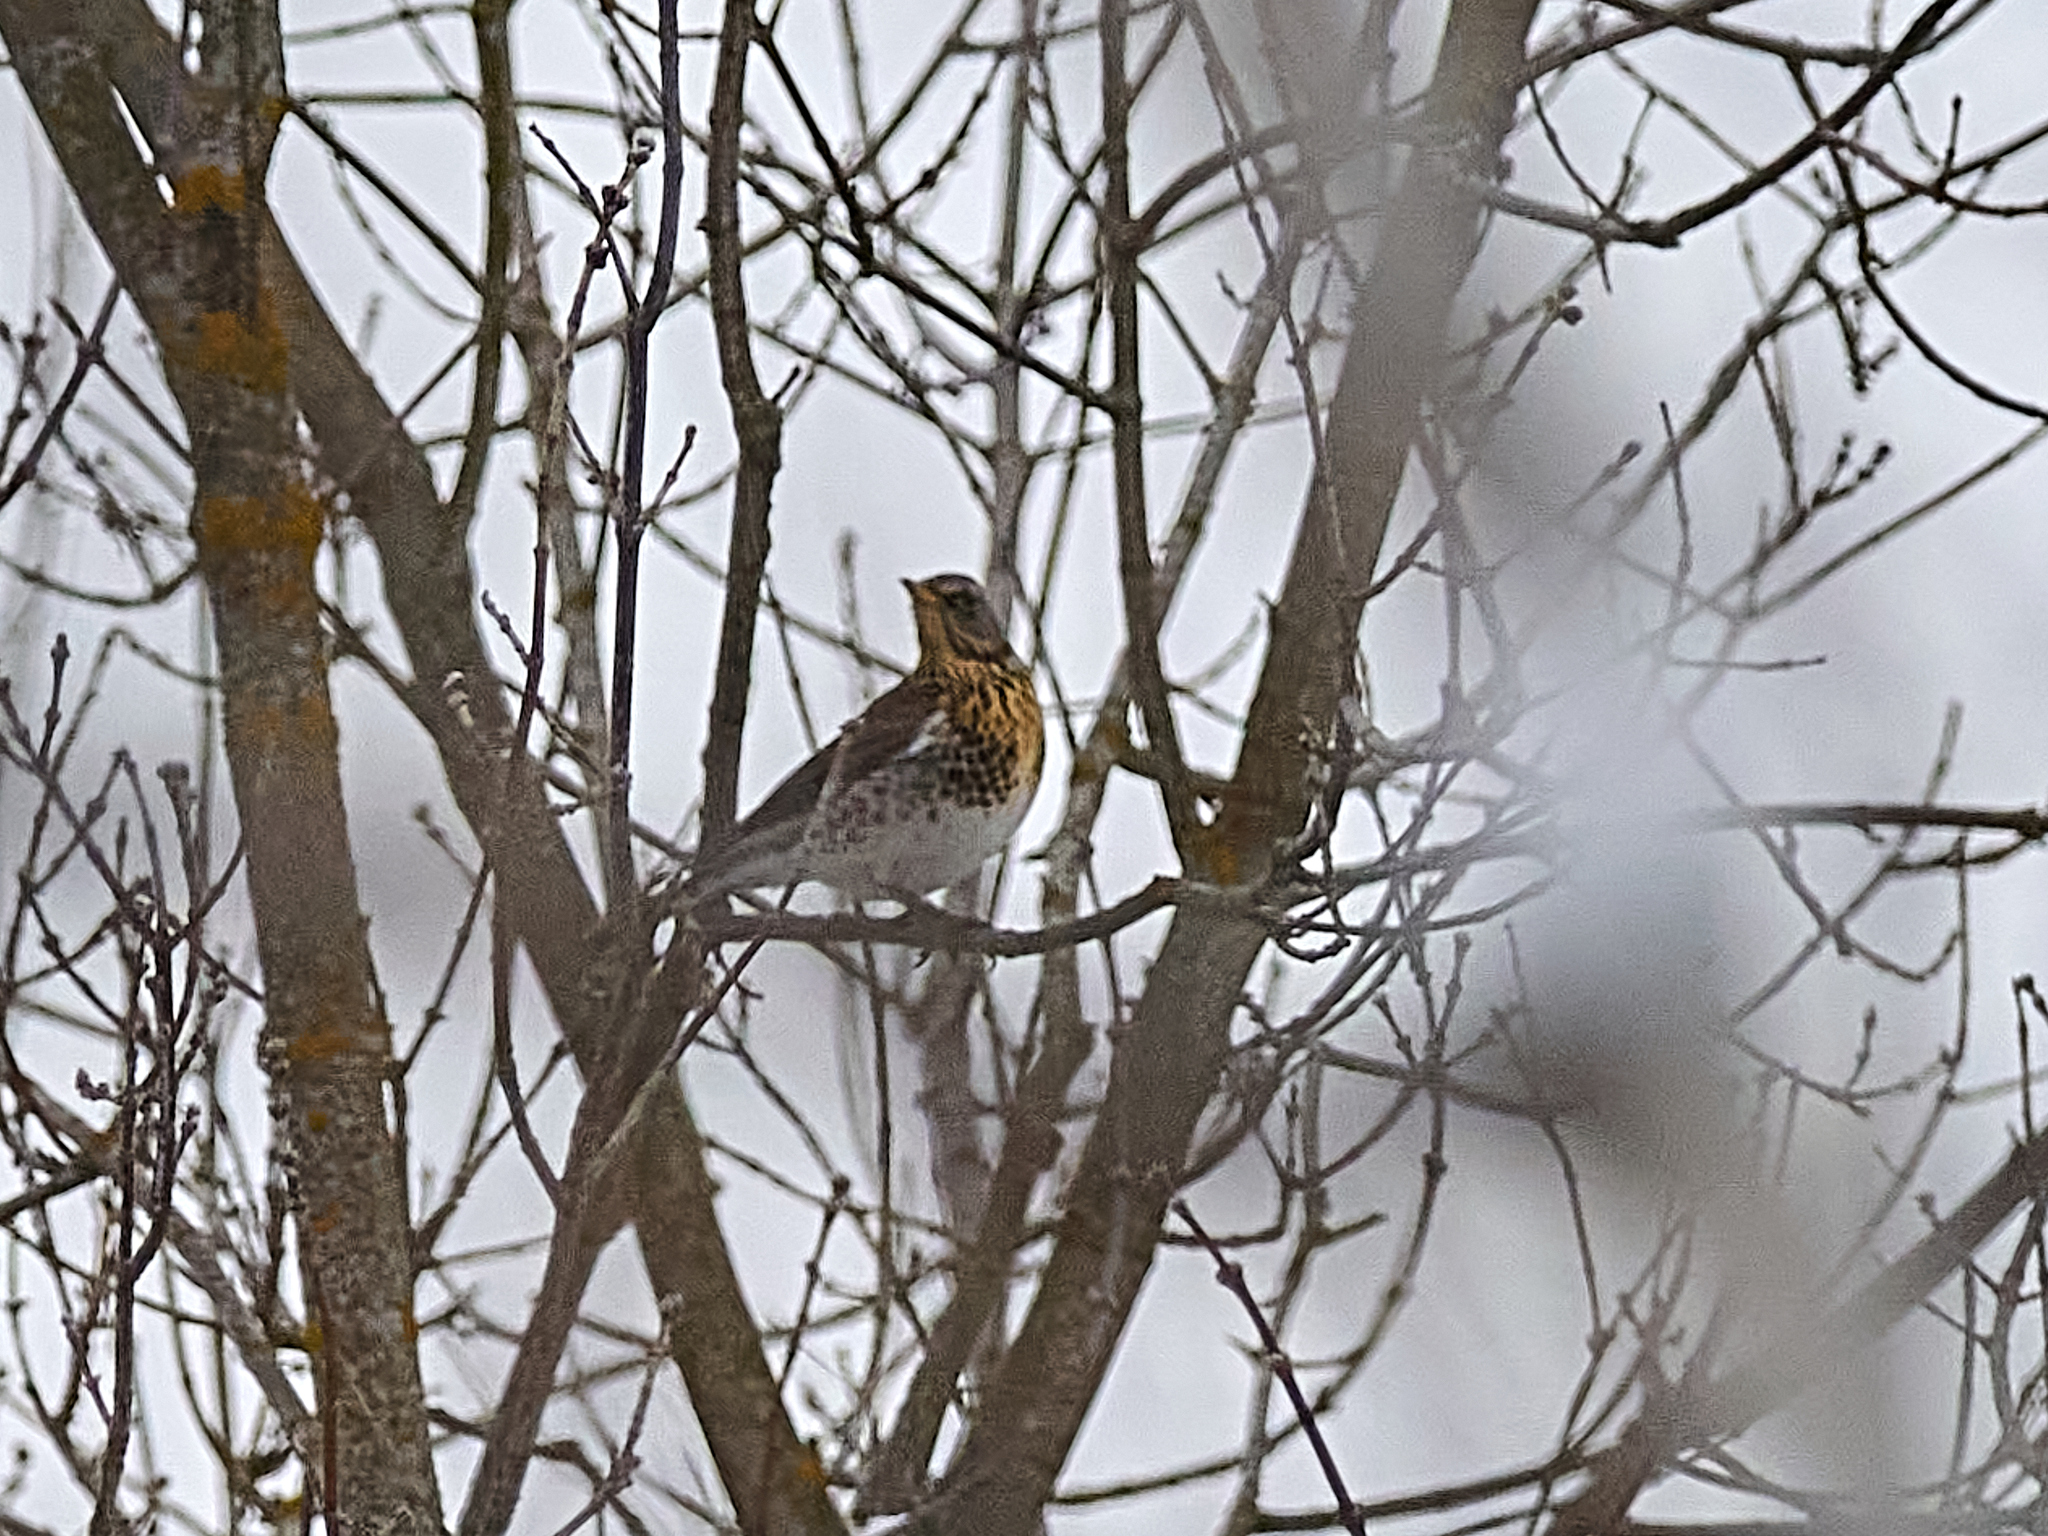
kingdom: Animalia
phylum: Chordata
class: Aves
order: Passeriformes
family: Turdidae
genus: Turdus
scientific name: Turdus pilaris
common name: Fieldfare
